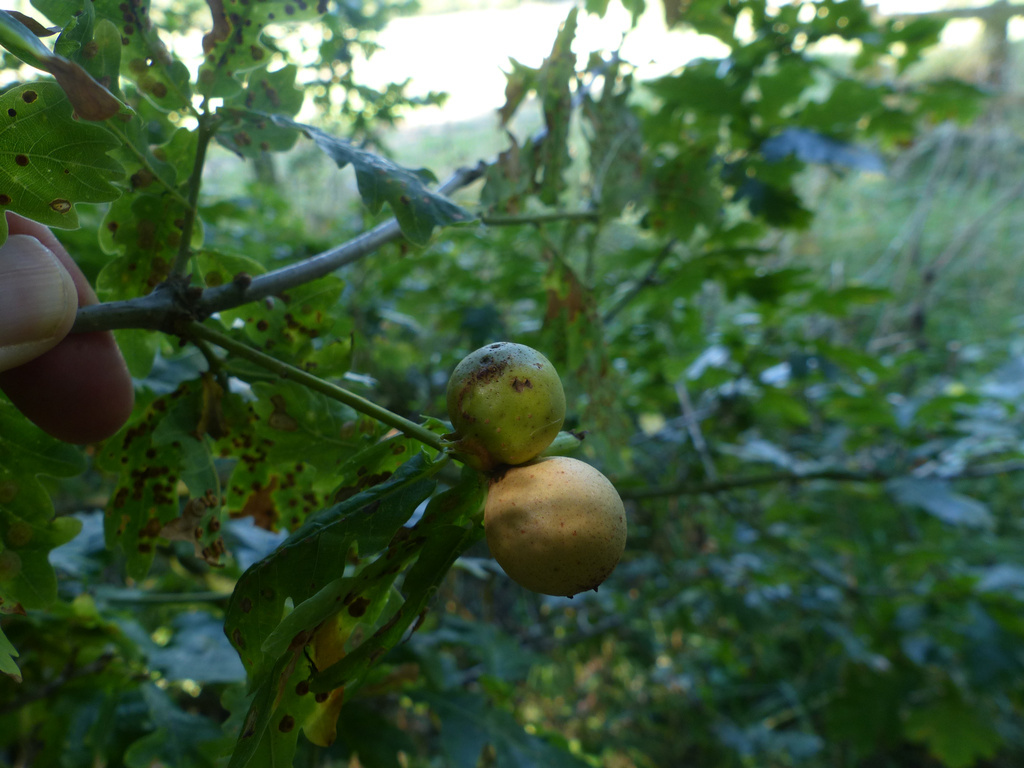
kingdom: Animalia
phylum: Arthropoda
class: Insecta
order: Hymenoptera
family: Cynipidae
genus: Andricus
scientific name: Andricus kollari
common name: Marble gall
